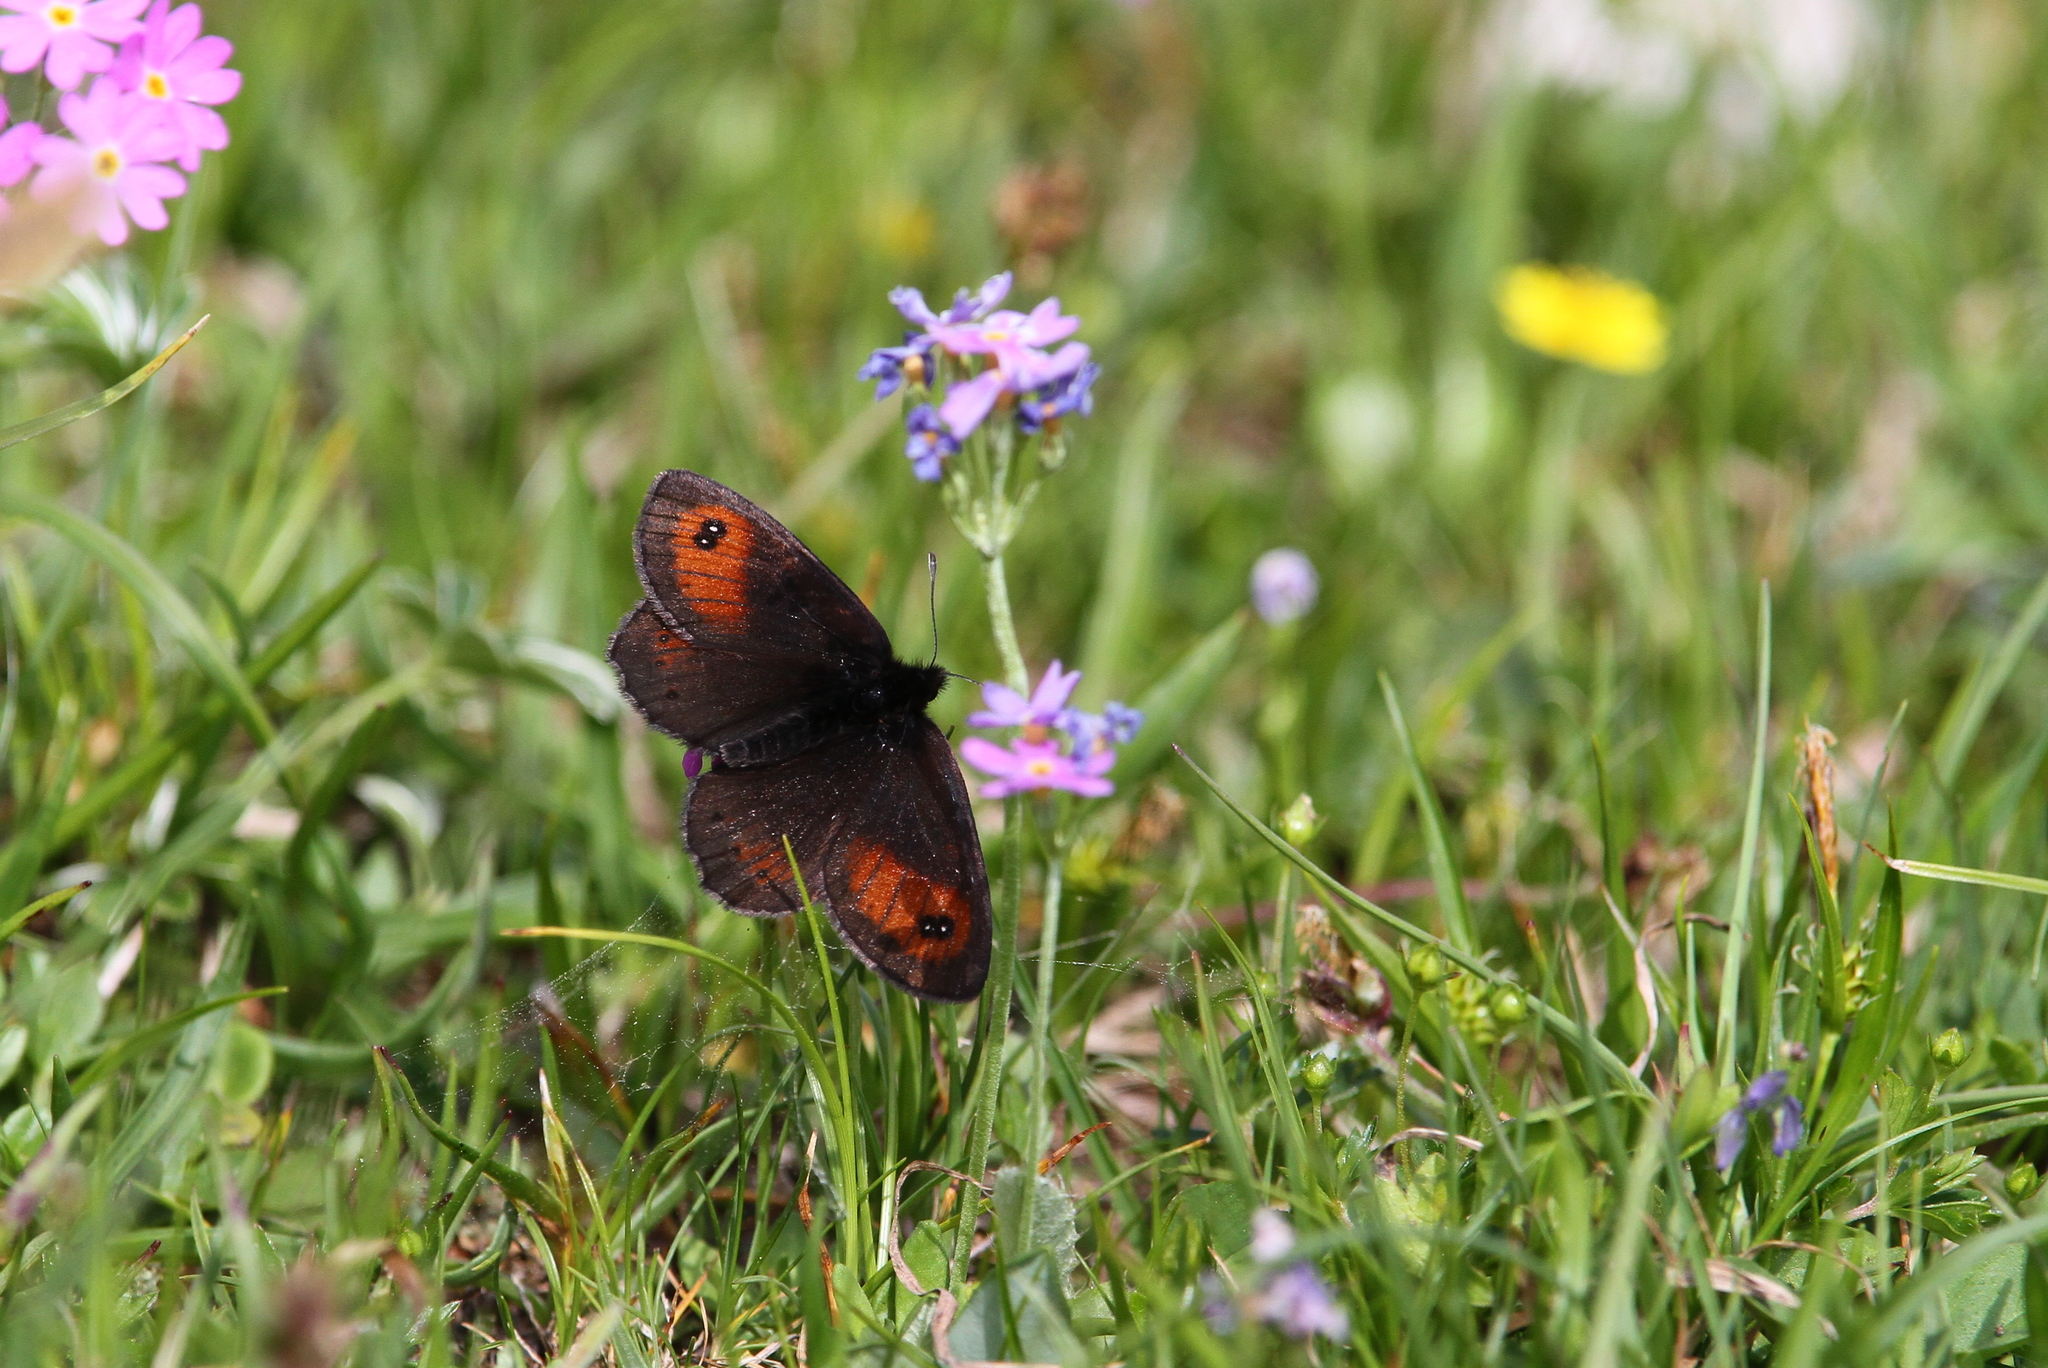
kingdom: Animalia
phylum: Arthropoda
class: Insecta
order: Lepidoptera
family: Nymphalidae
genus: Erebia
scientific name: Erebia gorge
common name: Silky ringlet
